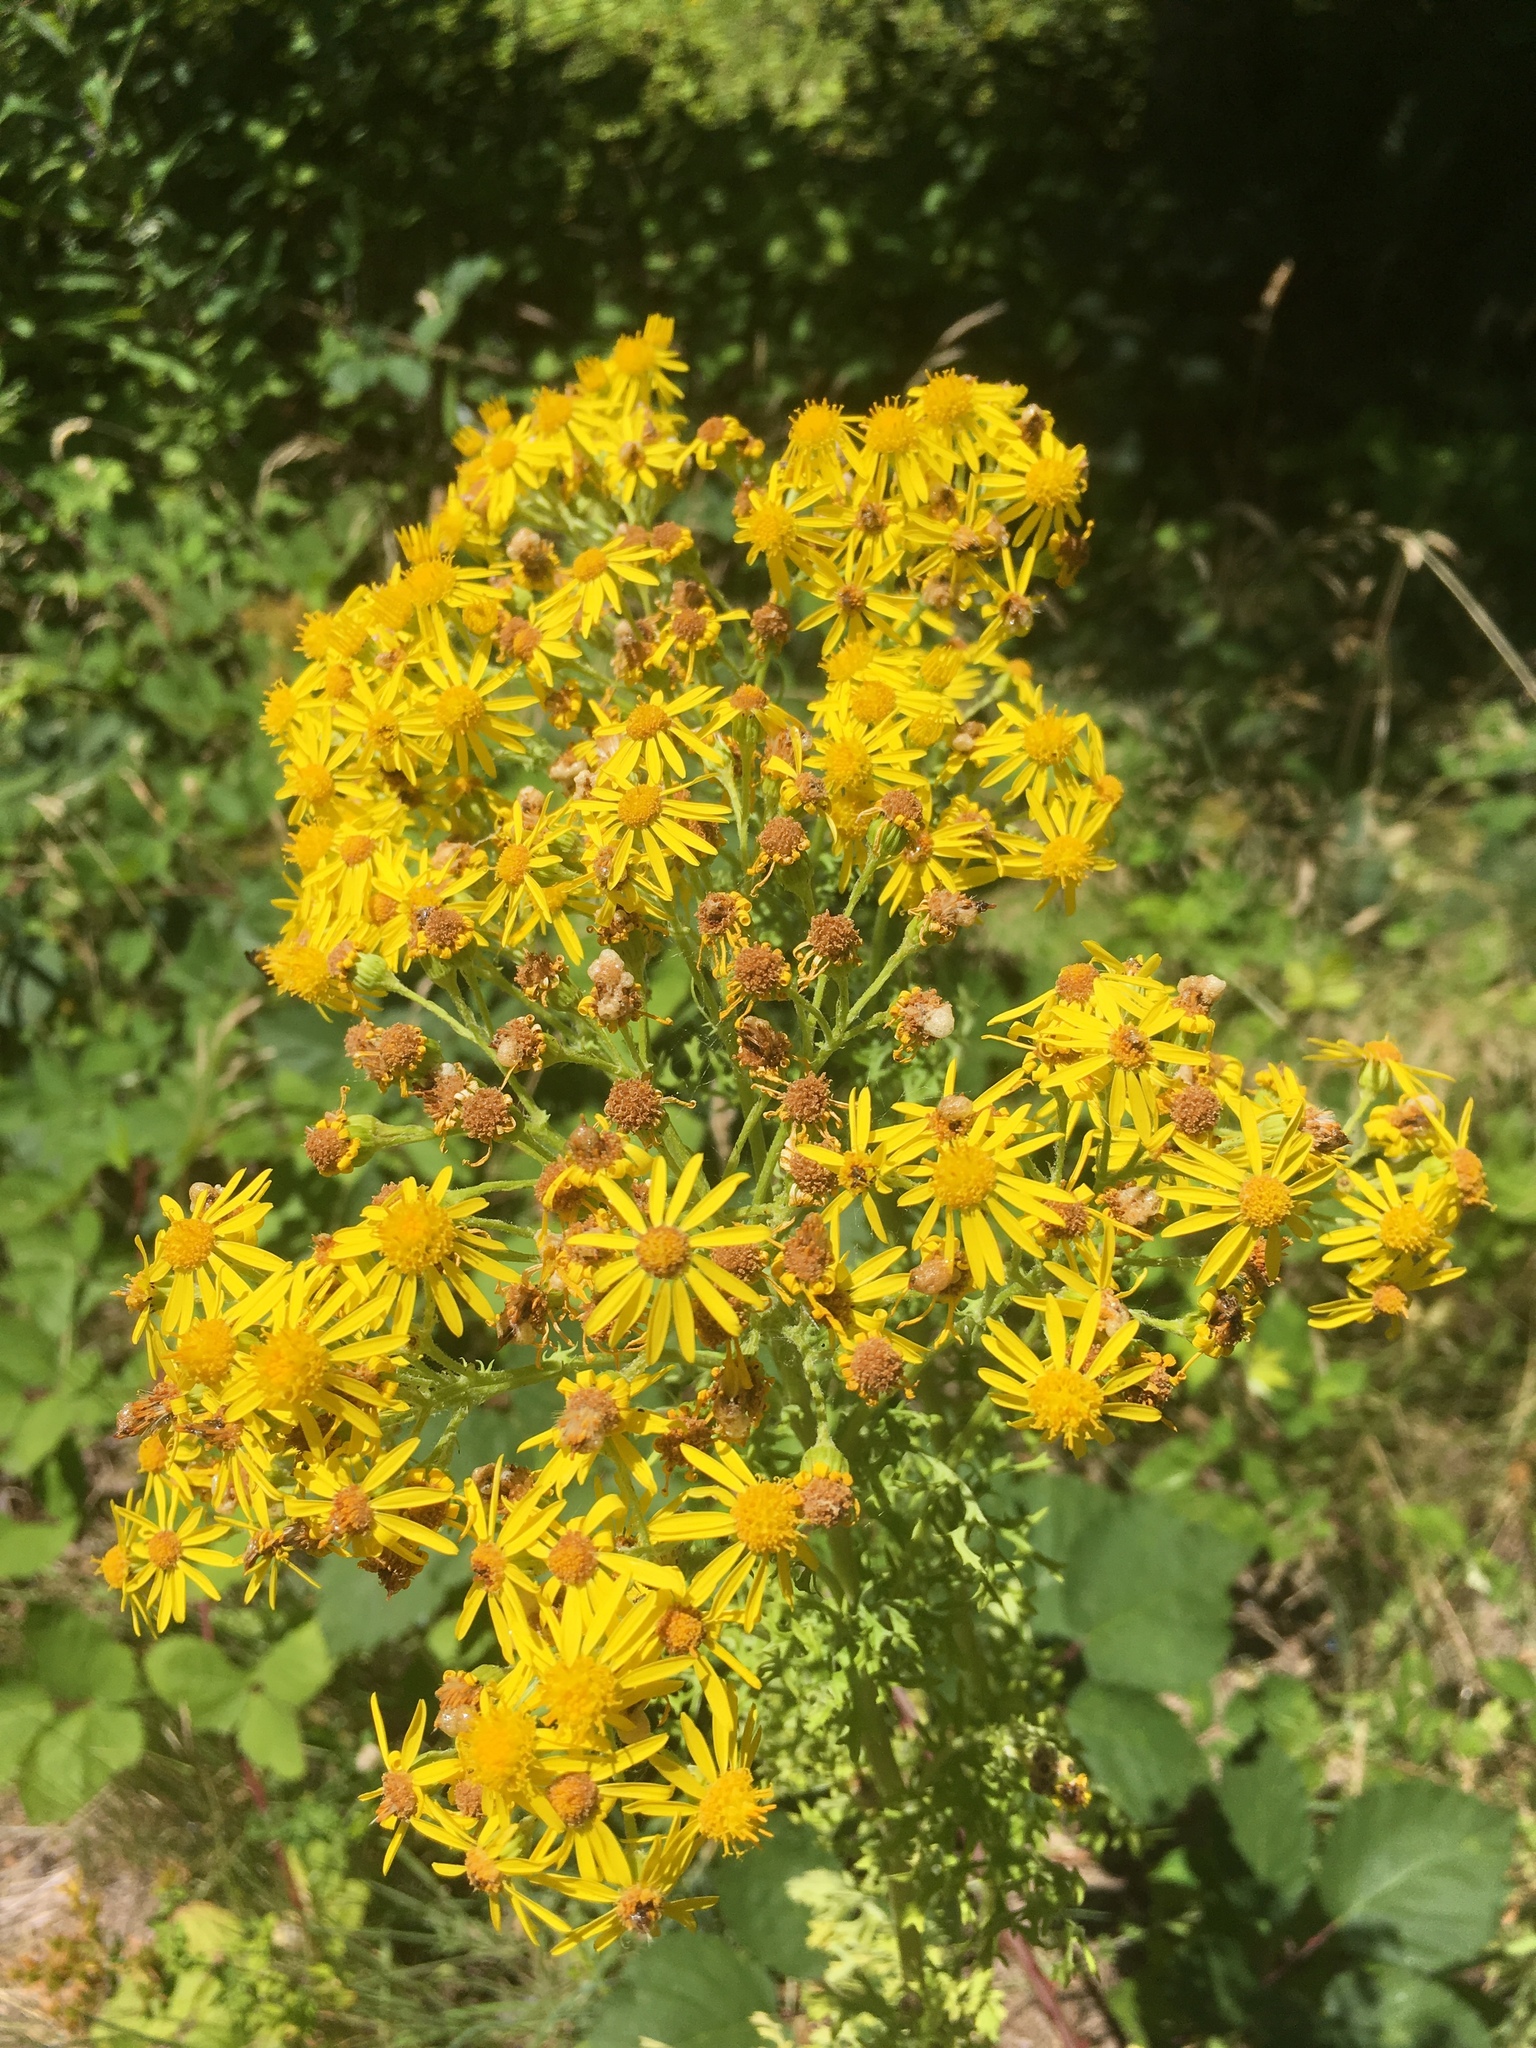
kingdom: Plantae
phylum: Tracheophyta
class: Magnoliopsida
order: Asterales
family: Asteraceae
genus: Jacobaea
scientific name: Jacobaea vulgaris
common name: Stinking willie
